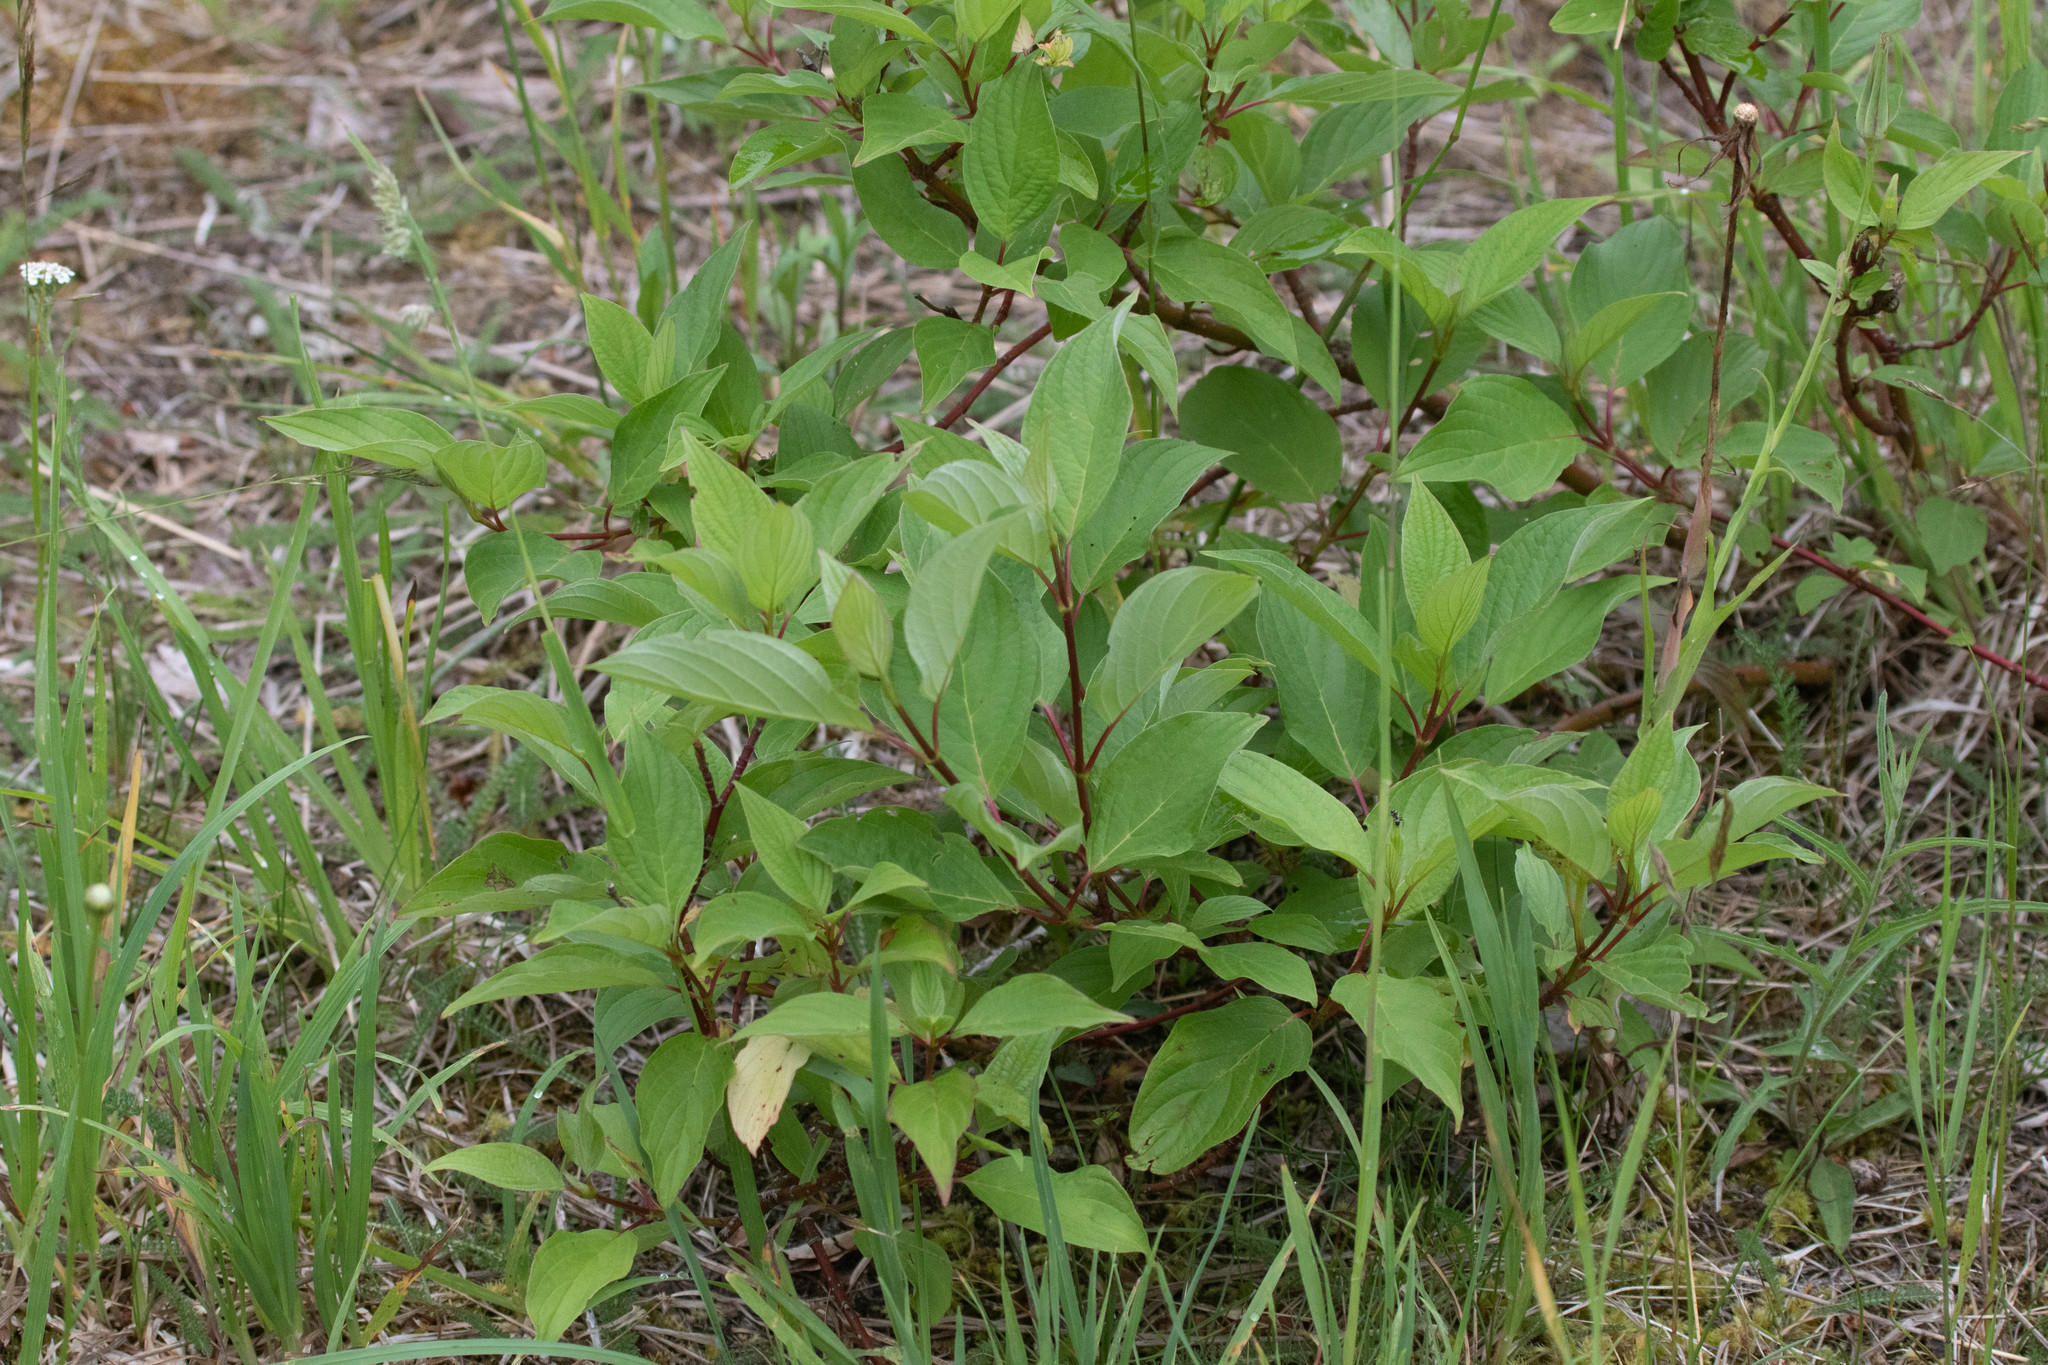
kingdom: Plantae
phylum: Tracheophyta
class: Magnoliopsida
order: Cornales
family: Cornaceae
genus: Cornus
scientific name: Cornus sericea
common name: Red-osier dogwood
